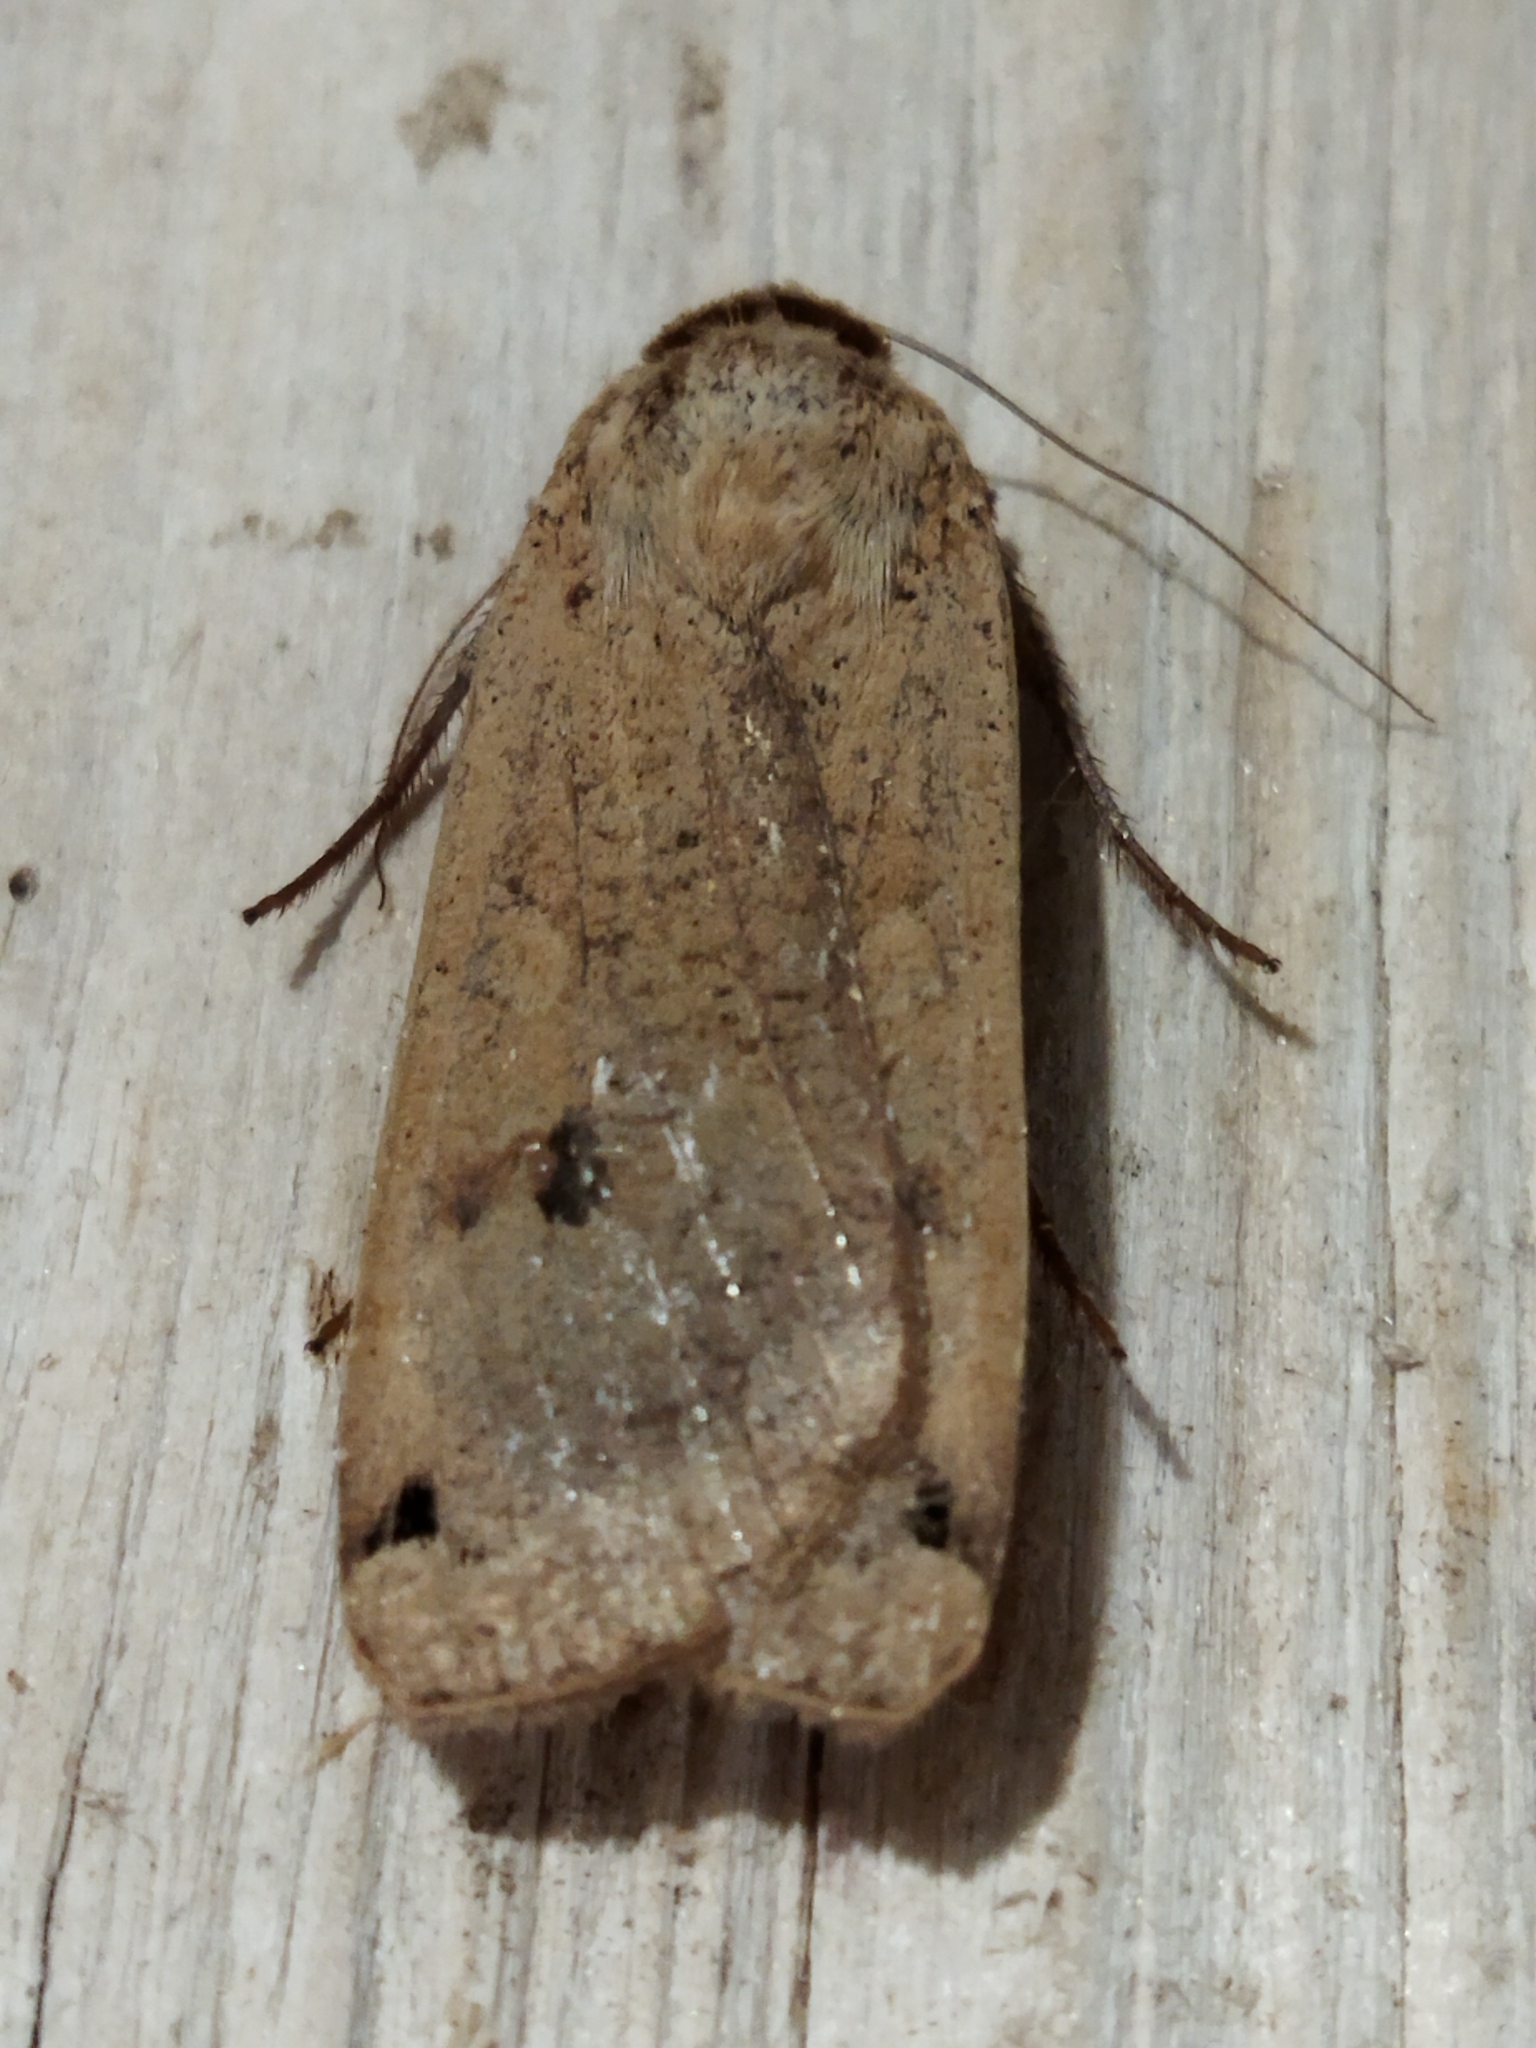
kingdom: Animalia
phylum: Arthropoda
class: Insecta
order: Lepidoptera
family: Noctuidae
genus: Noctua
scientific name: Noctua pronuba
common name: Large yellow underwing
